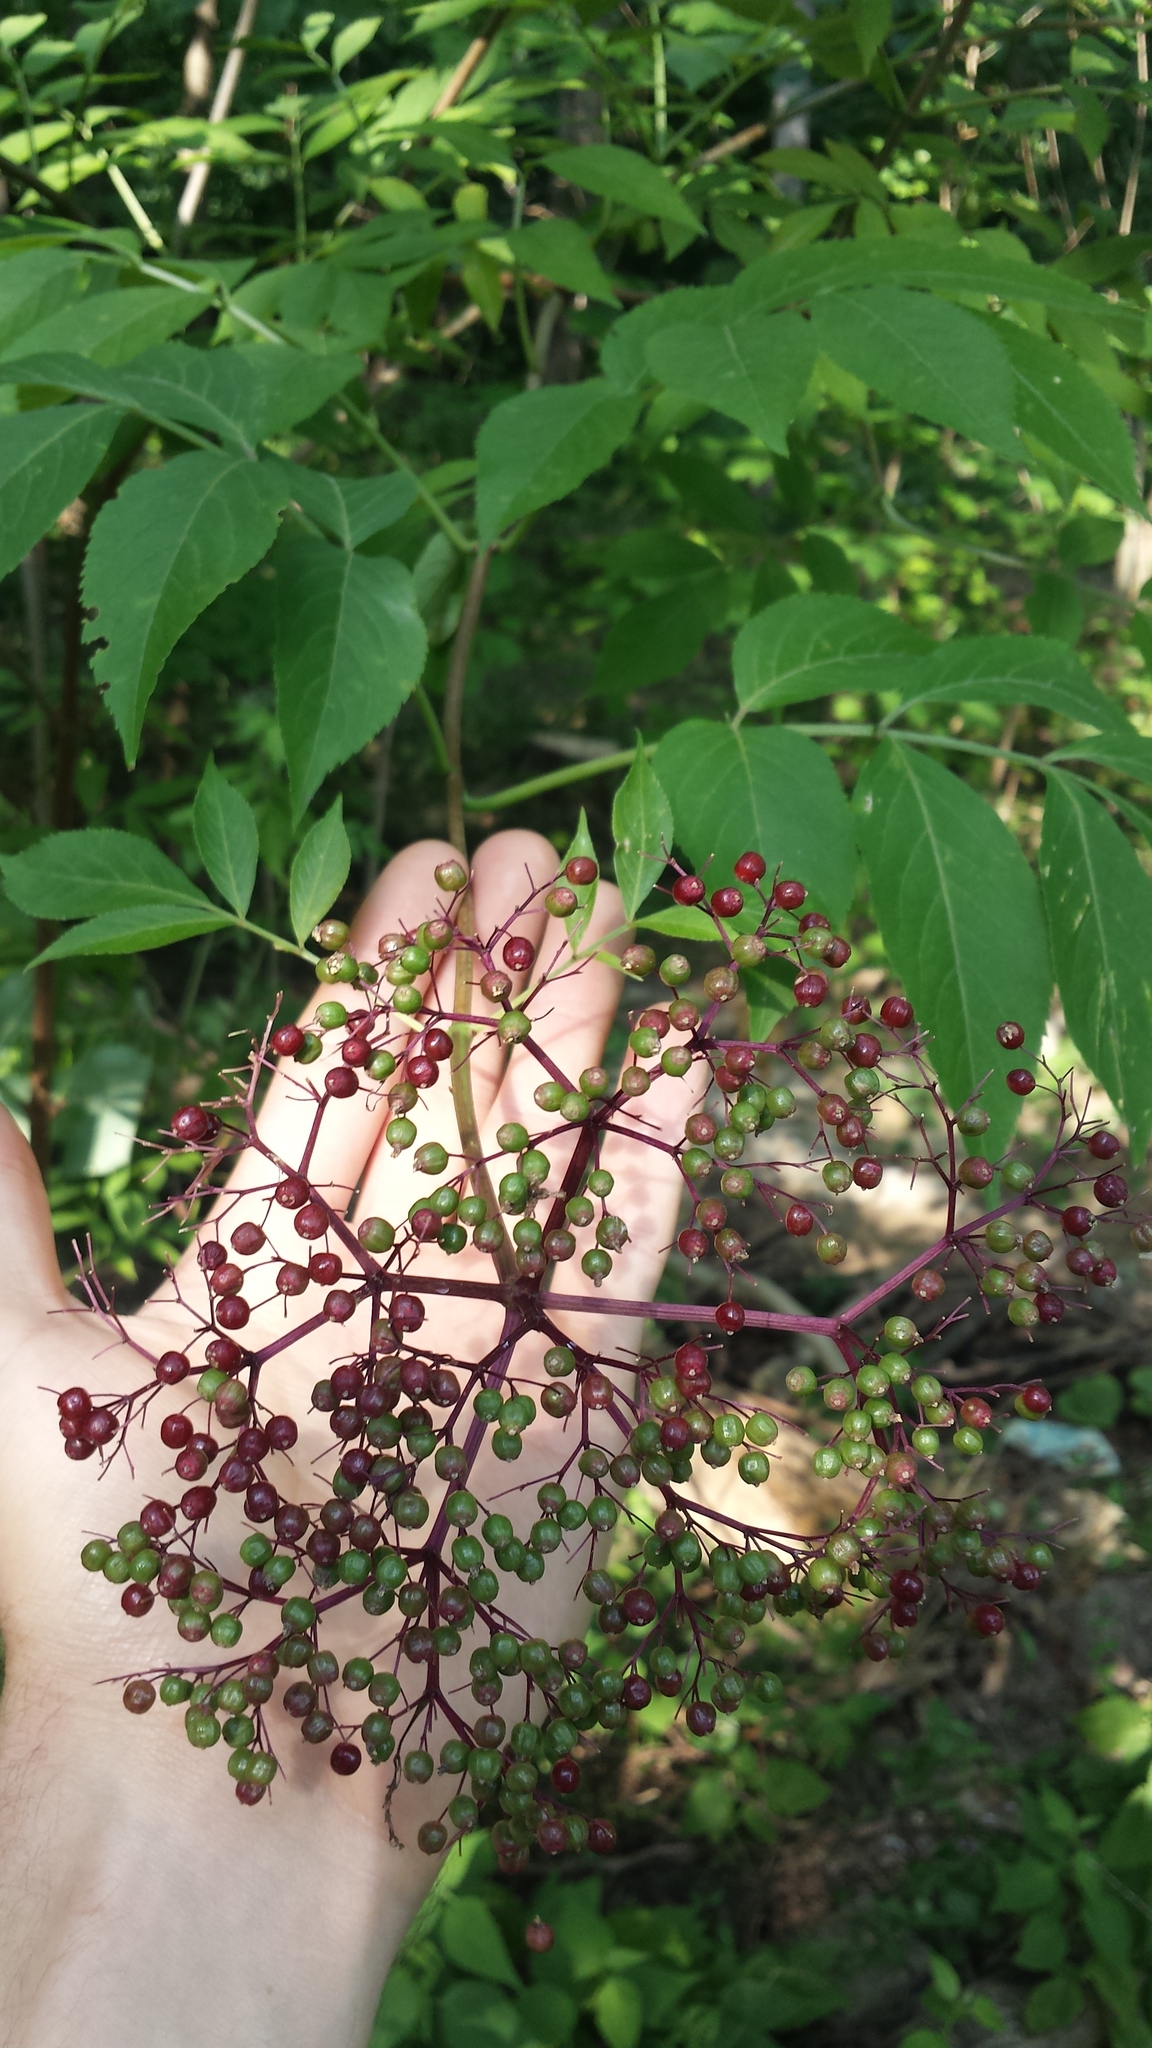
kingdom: Plantae
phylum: Tracheophyta
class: Magnoliopsida
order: Dipsacales
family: Viburnaceae
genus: Sambucus
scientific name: Sambucus canadensis
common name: American elder
